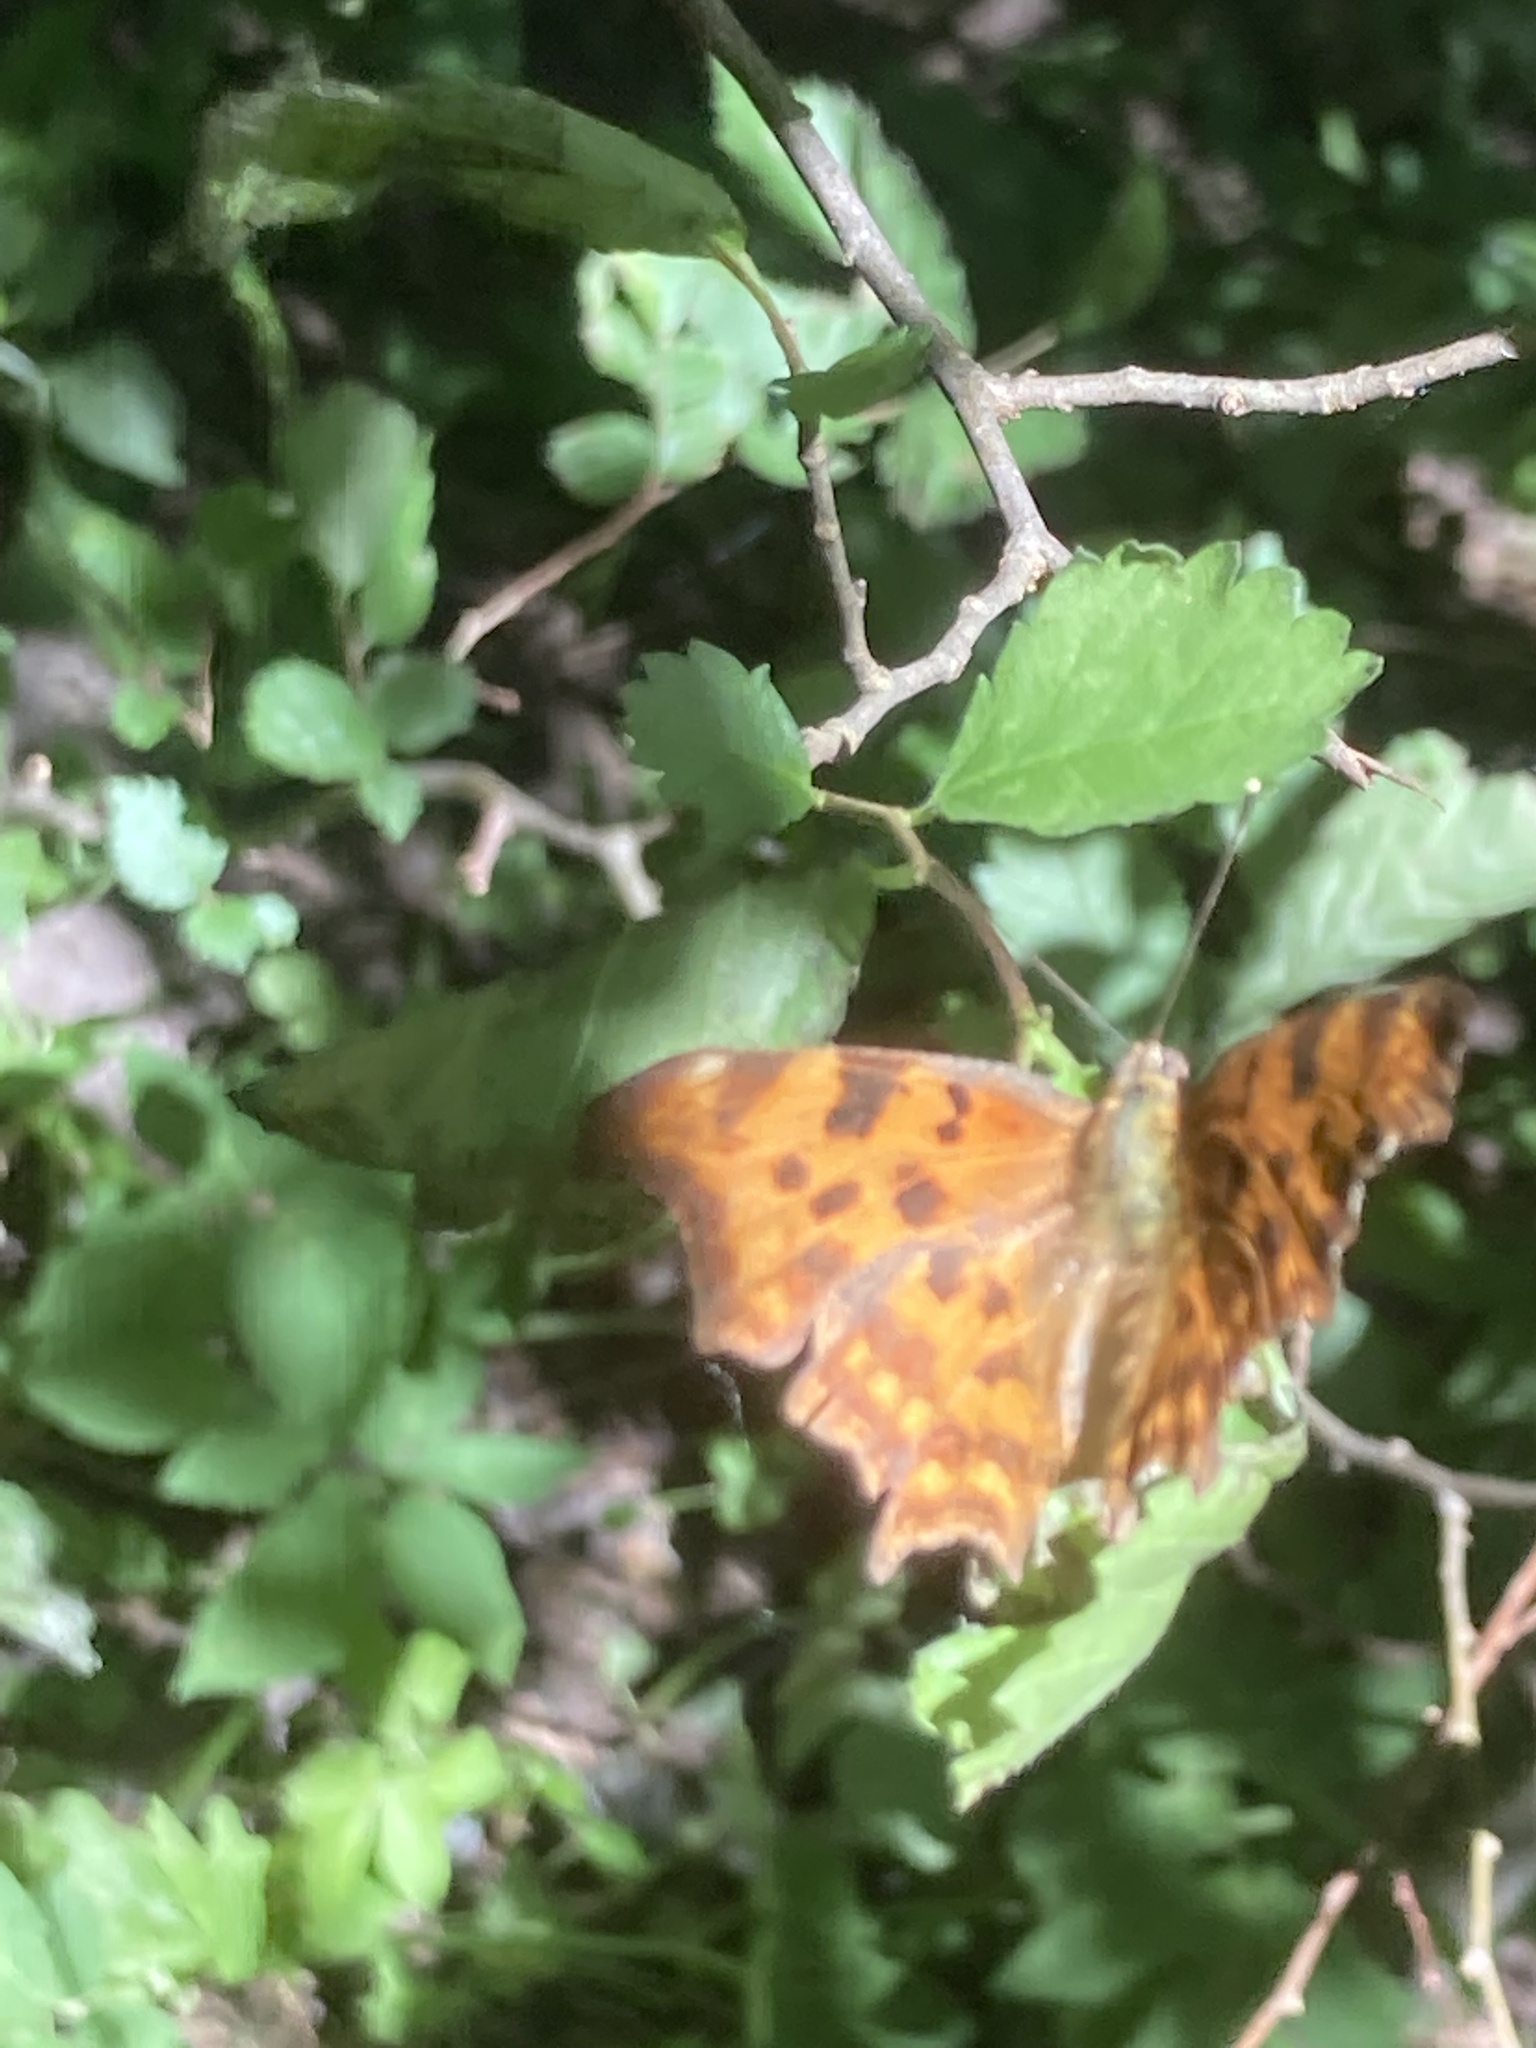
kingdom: Animalia
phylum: Arthropoda
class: Insecta
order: Lepidoptera
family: Nymphalidae
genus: Polygonia
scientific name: Polygonia c-album
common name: Comma
